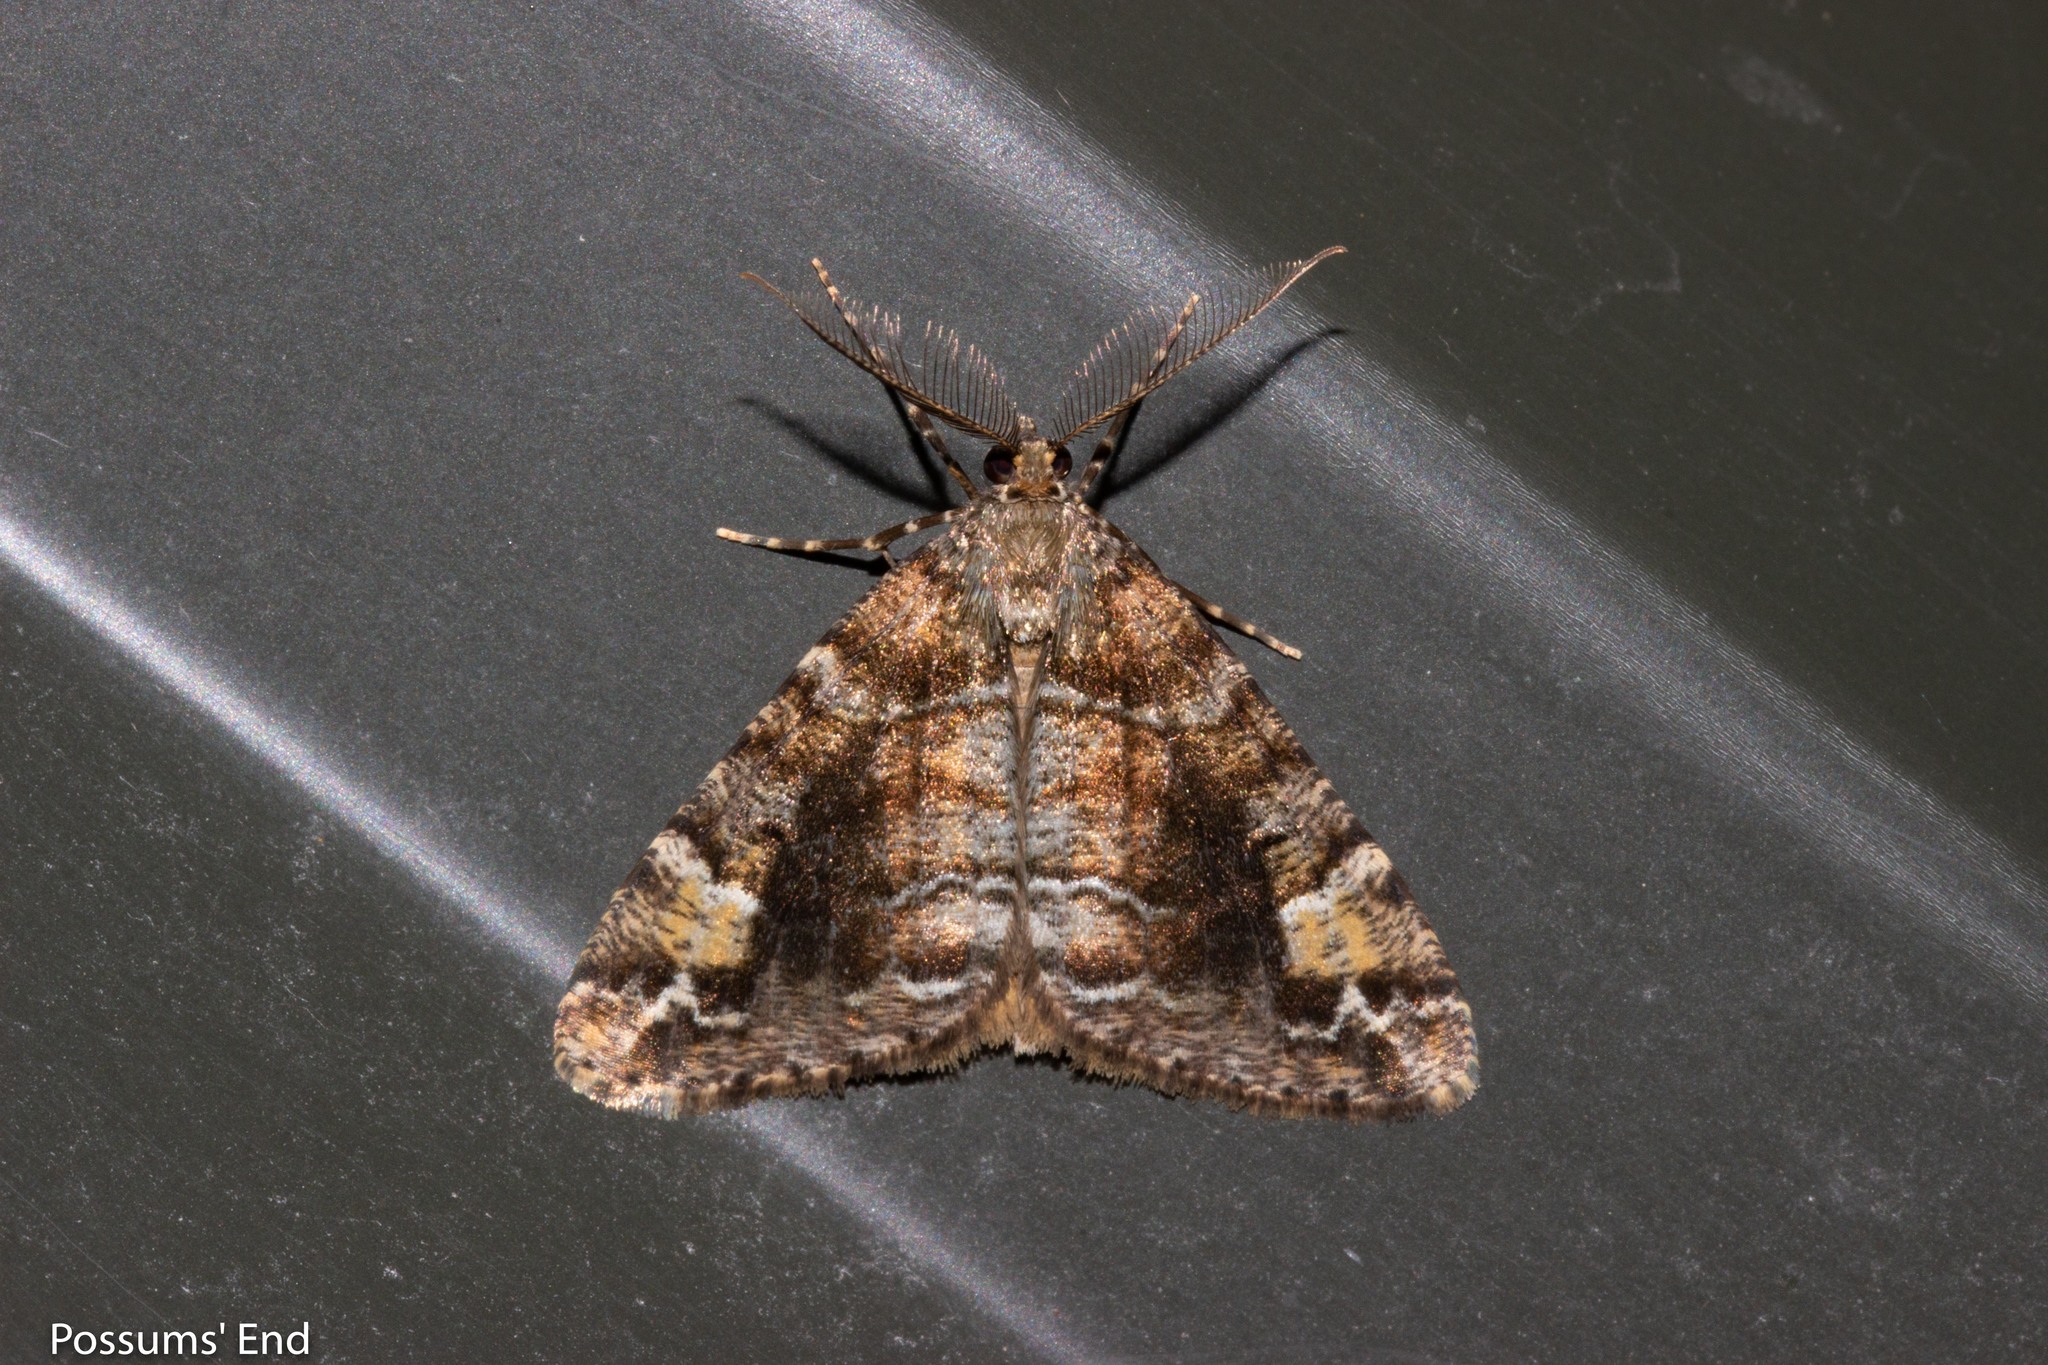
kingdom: Animalia
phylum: Arthropoda
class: Insecta
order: Lepidoptera
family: Geometridae
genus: Pseudocoremia
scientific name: Pseudocoremia productata
